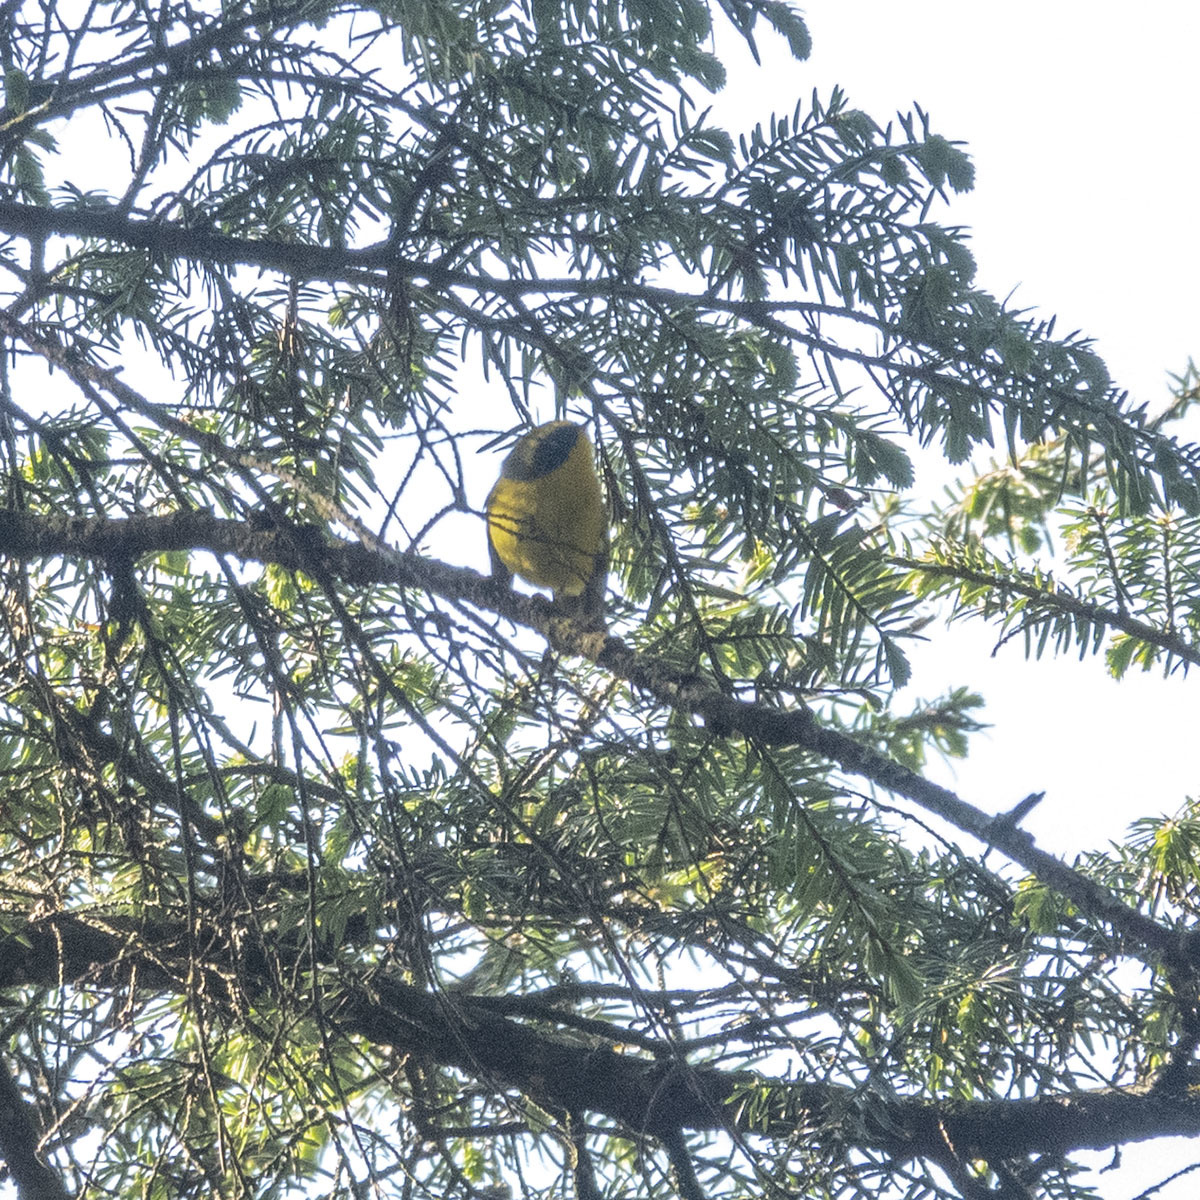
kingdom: Animalia
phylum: Chordata
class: Aves
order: Passeriformes
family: Stenostiridae
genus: Chelidorhynx
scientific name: Chelidorhynx hypoxantha
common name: Yellow-bellied fantail
